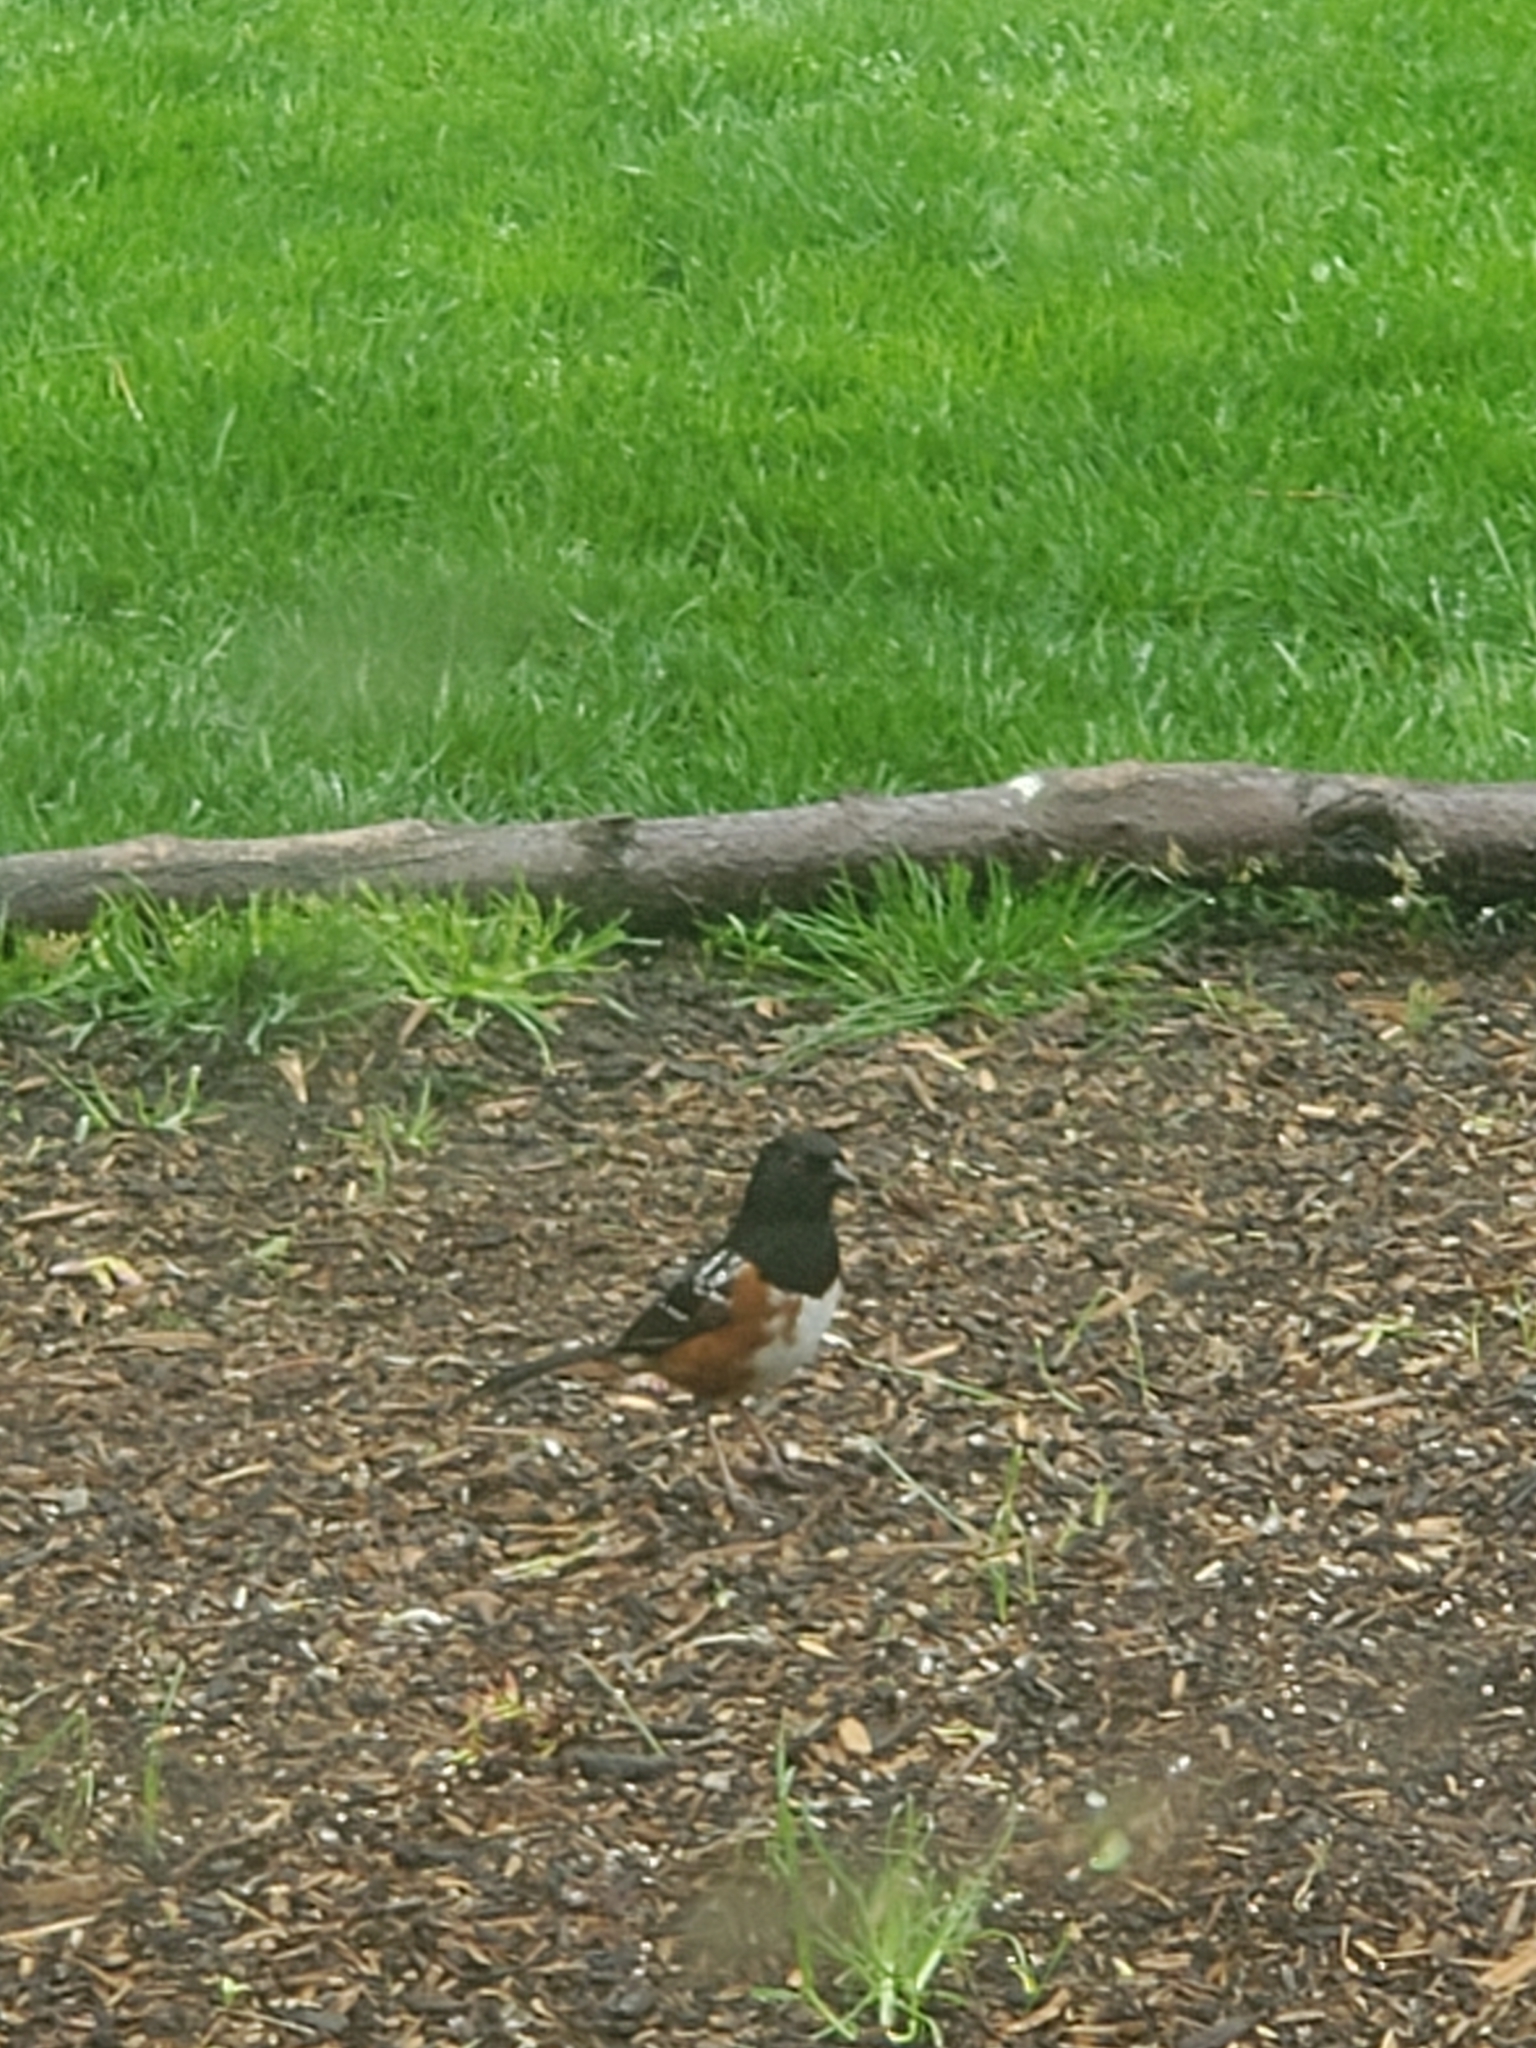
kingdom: Animalia
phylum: Chordata
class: Aves
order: Passeriformes
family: Passerellidae
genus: Pipilo
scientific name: Pipilo maculatus
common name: Spotted towhee
